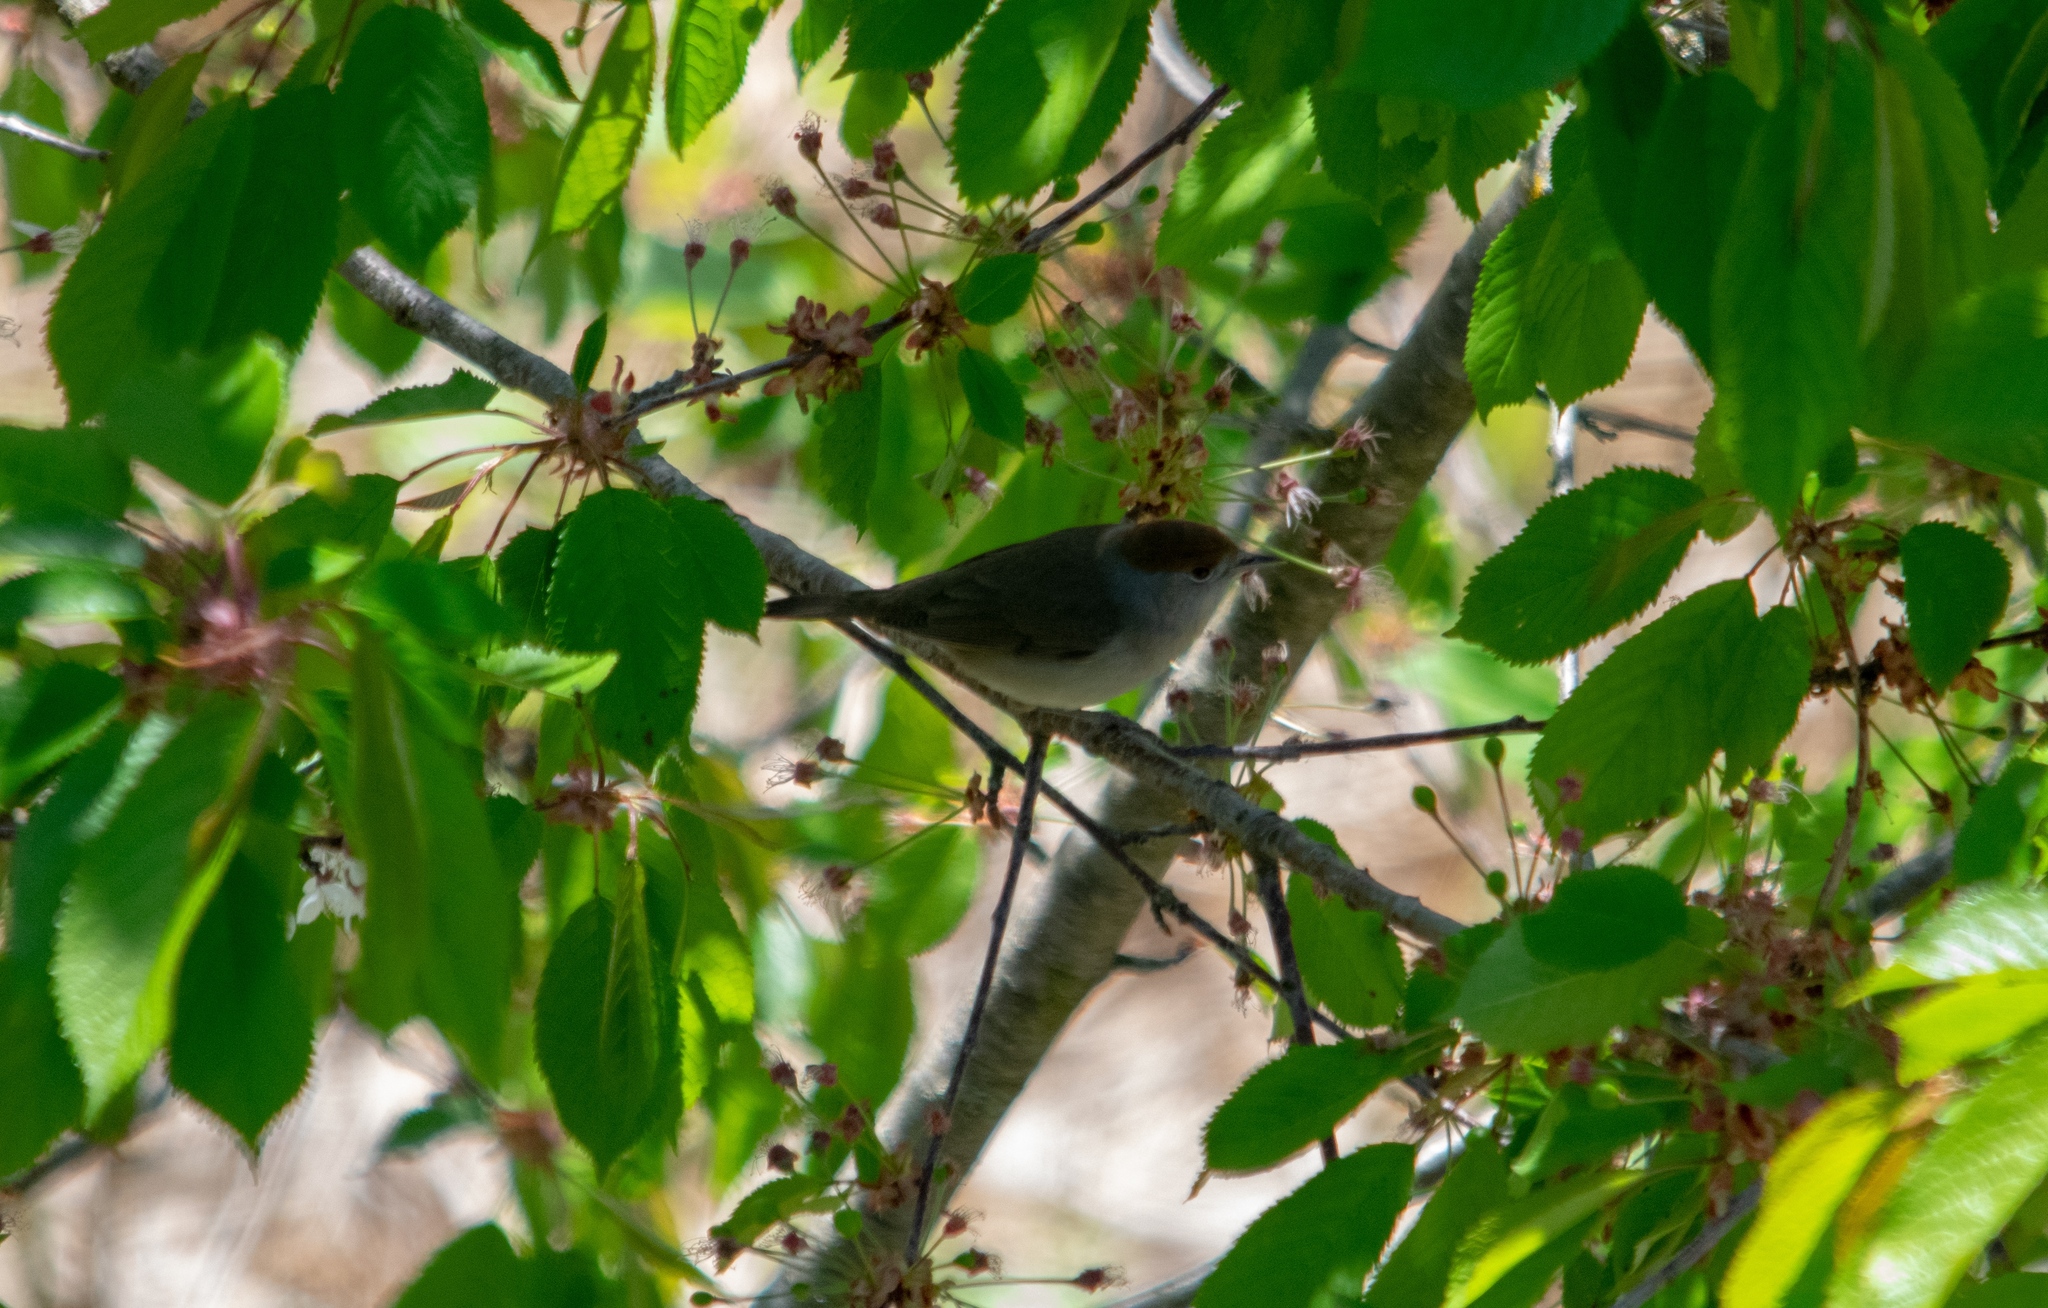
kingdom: Animalia
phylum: Chordata
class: Aves
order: Passeriformes
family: Sylviidae
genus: Sylvia
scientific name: Sylvia atricapilla
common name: Eurasian blackcap
